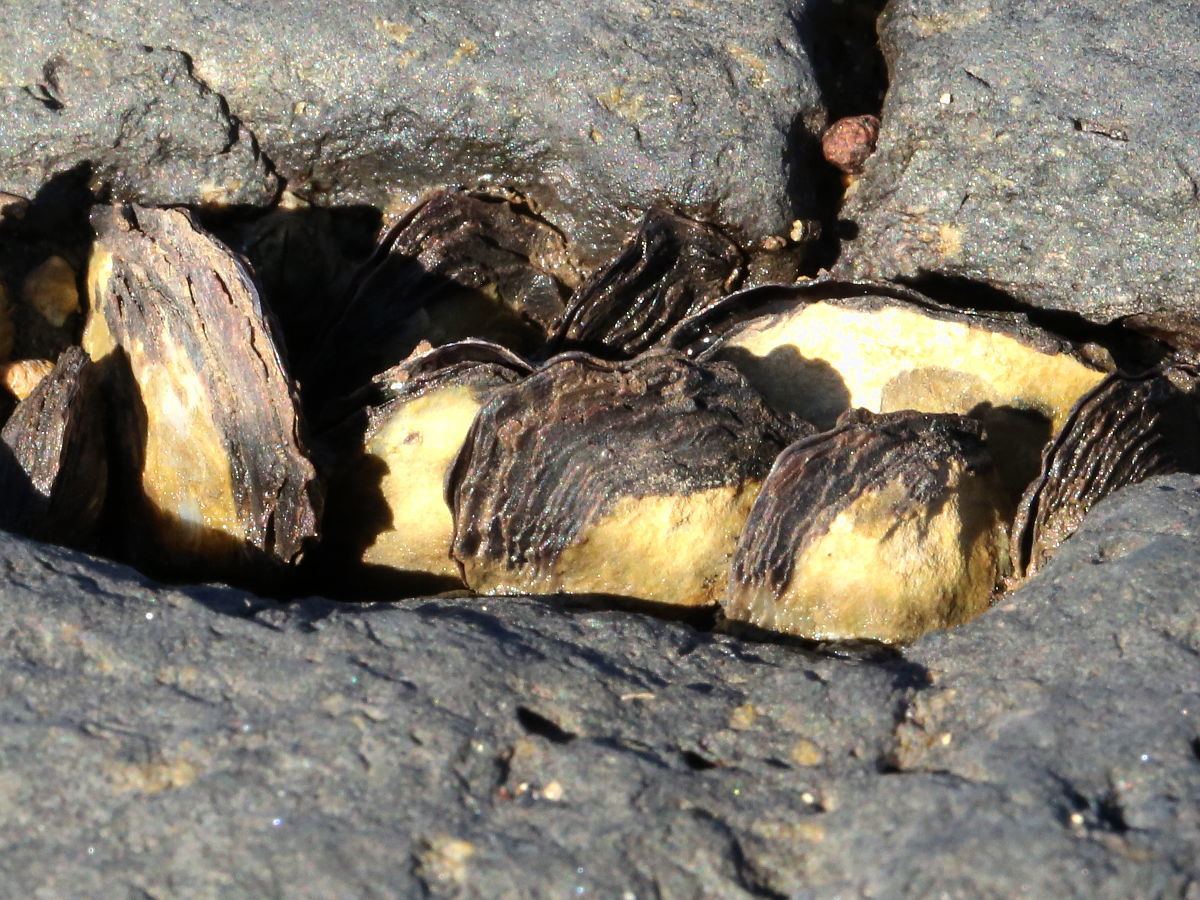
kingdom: Animalia
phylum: Mollusca
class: Bivalvia
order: Ostreida
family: Isognomonidae
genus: Isognomon
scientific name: Isognomon californicus
